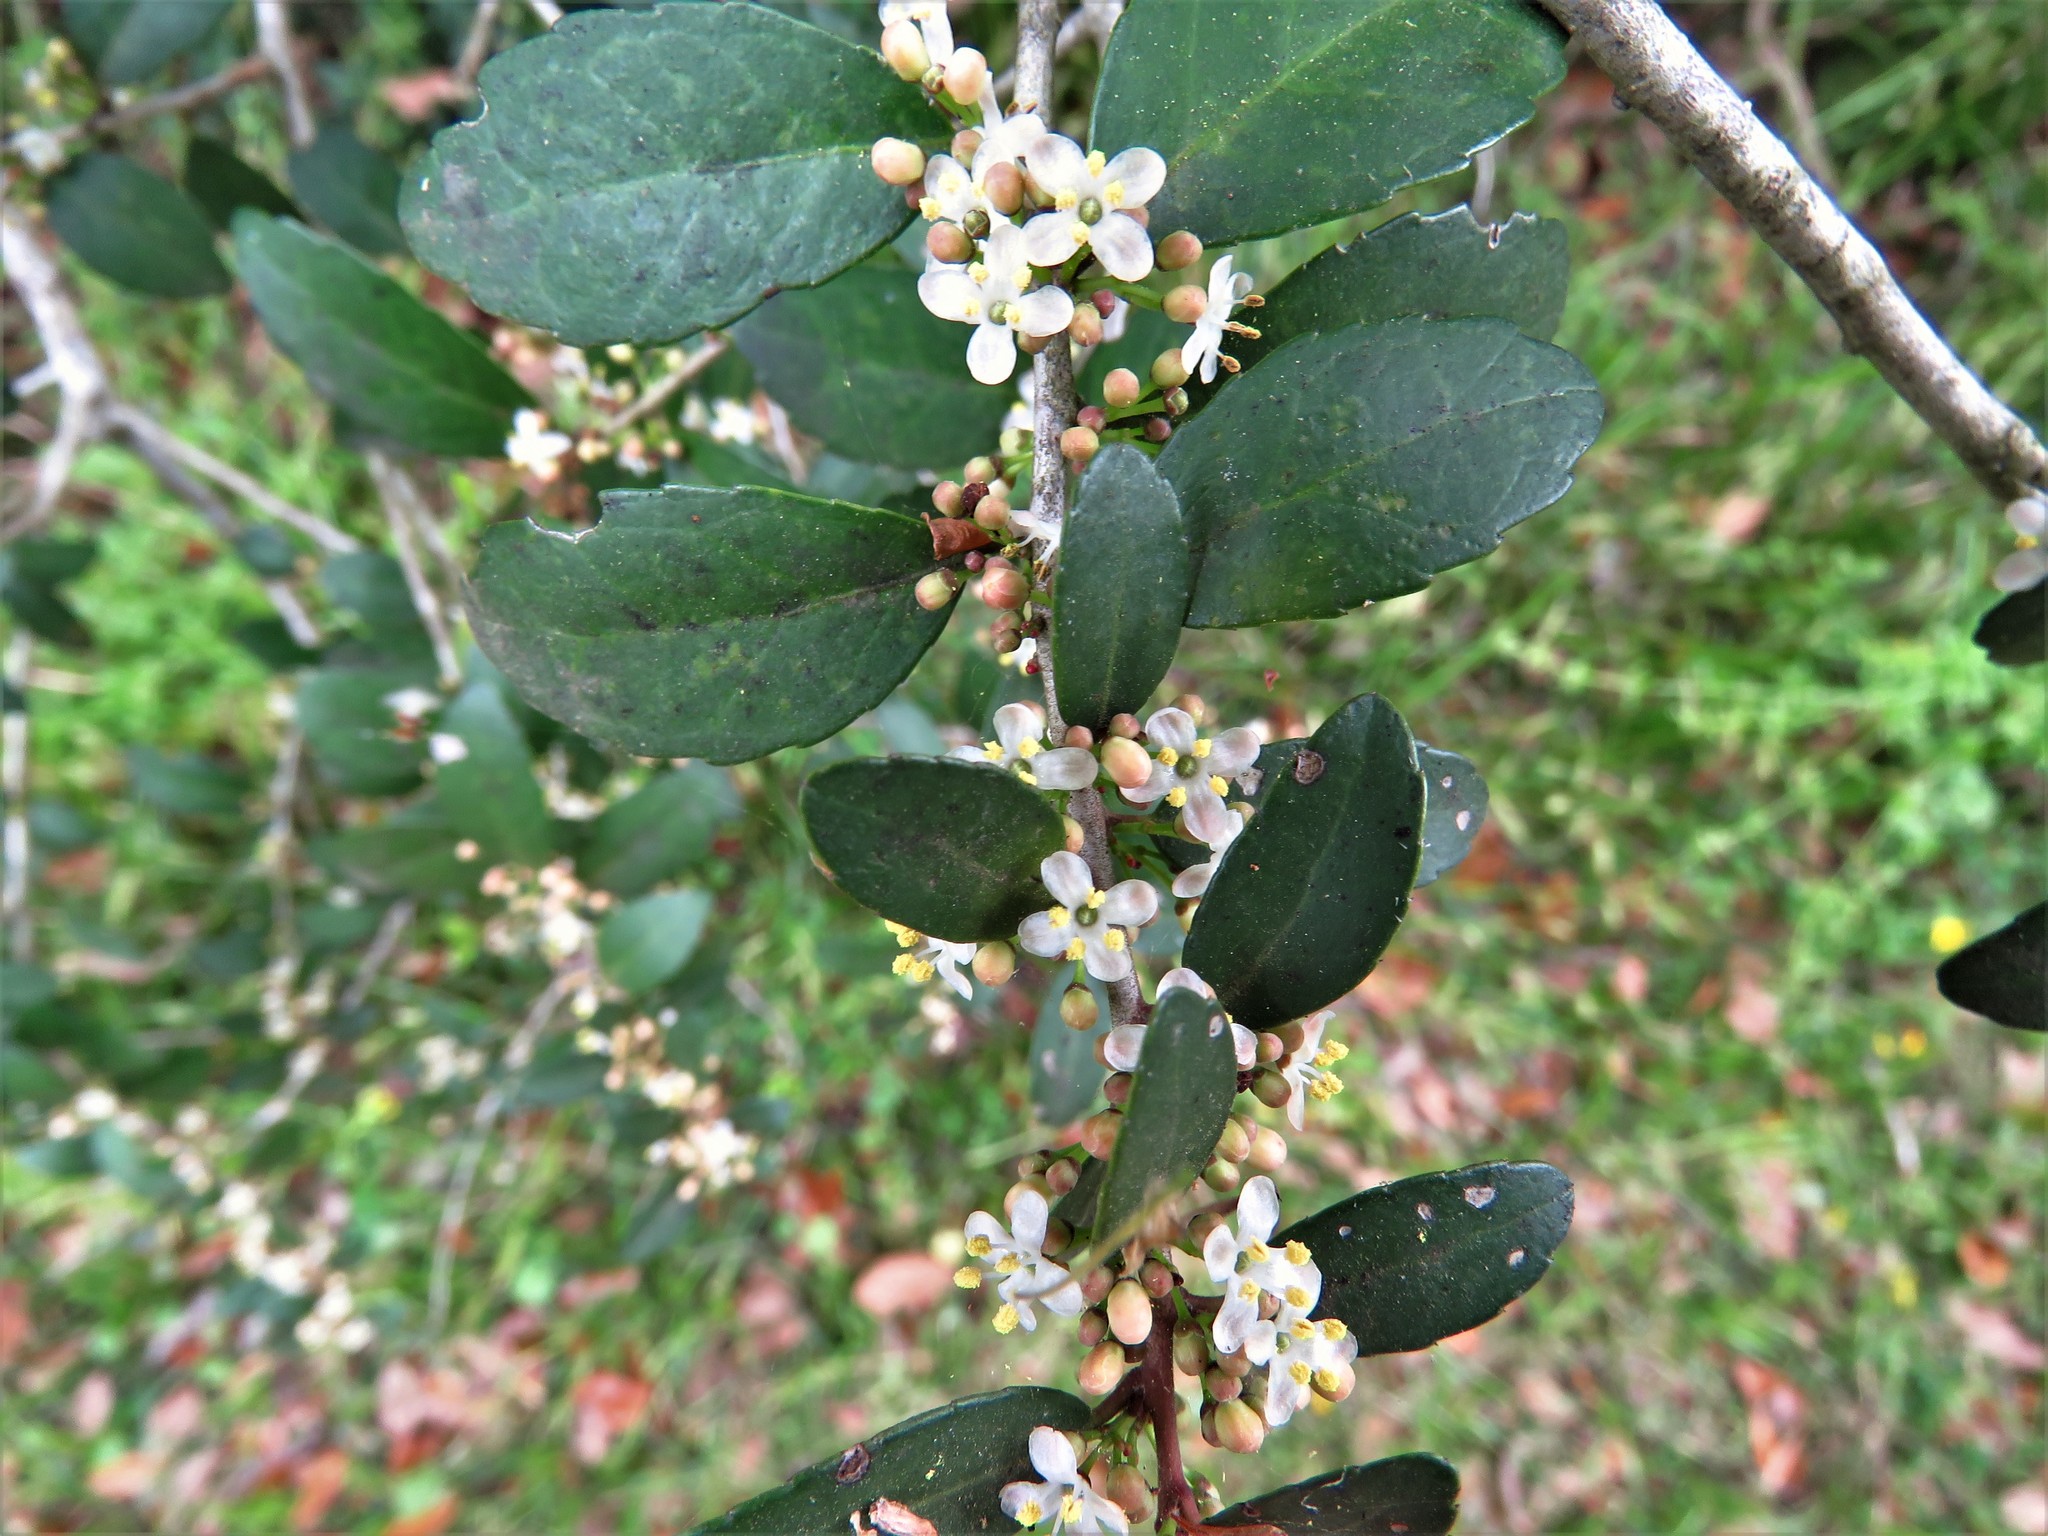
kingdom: Plantae
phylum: Tracheophyta
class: Magnoliopsida
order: Aquifoliales
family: Aquifoliaceae
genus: Ilex
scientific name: Ilex vomitoria
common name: Yaupon holly
